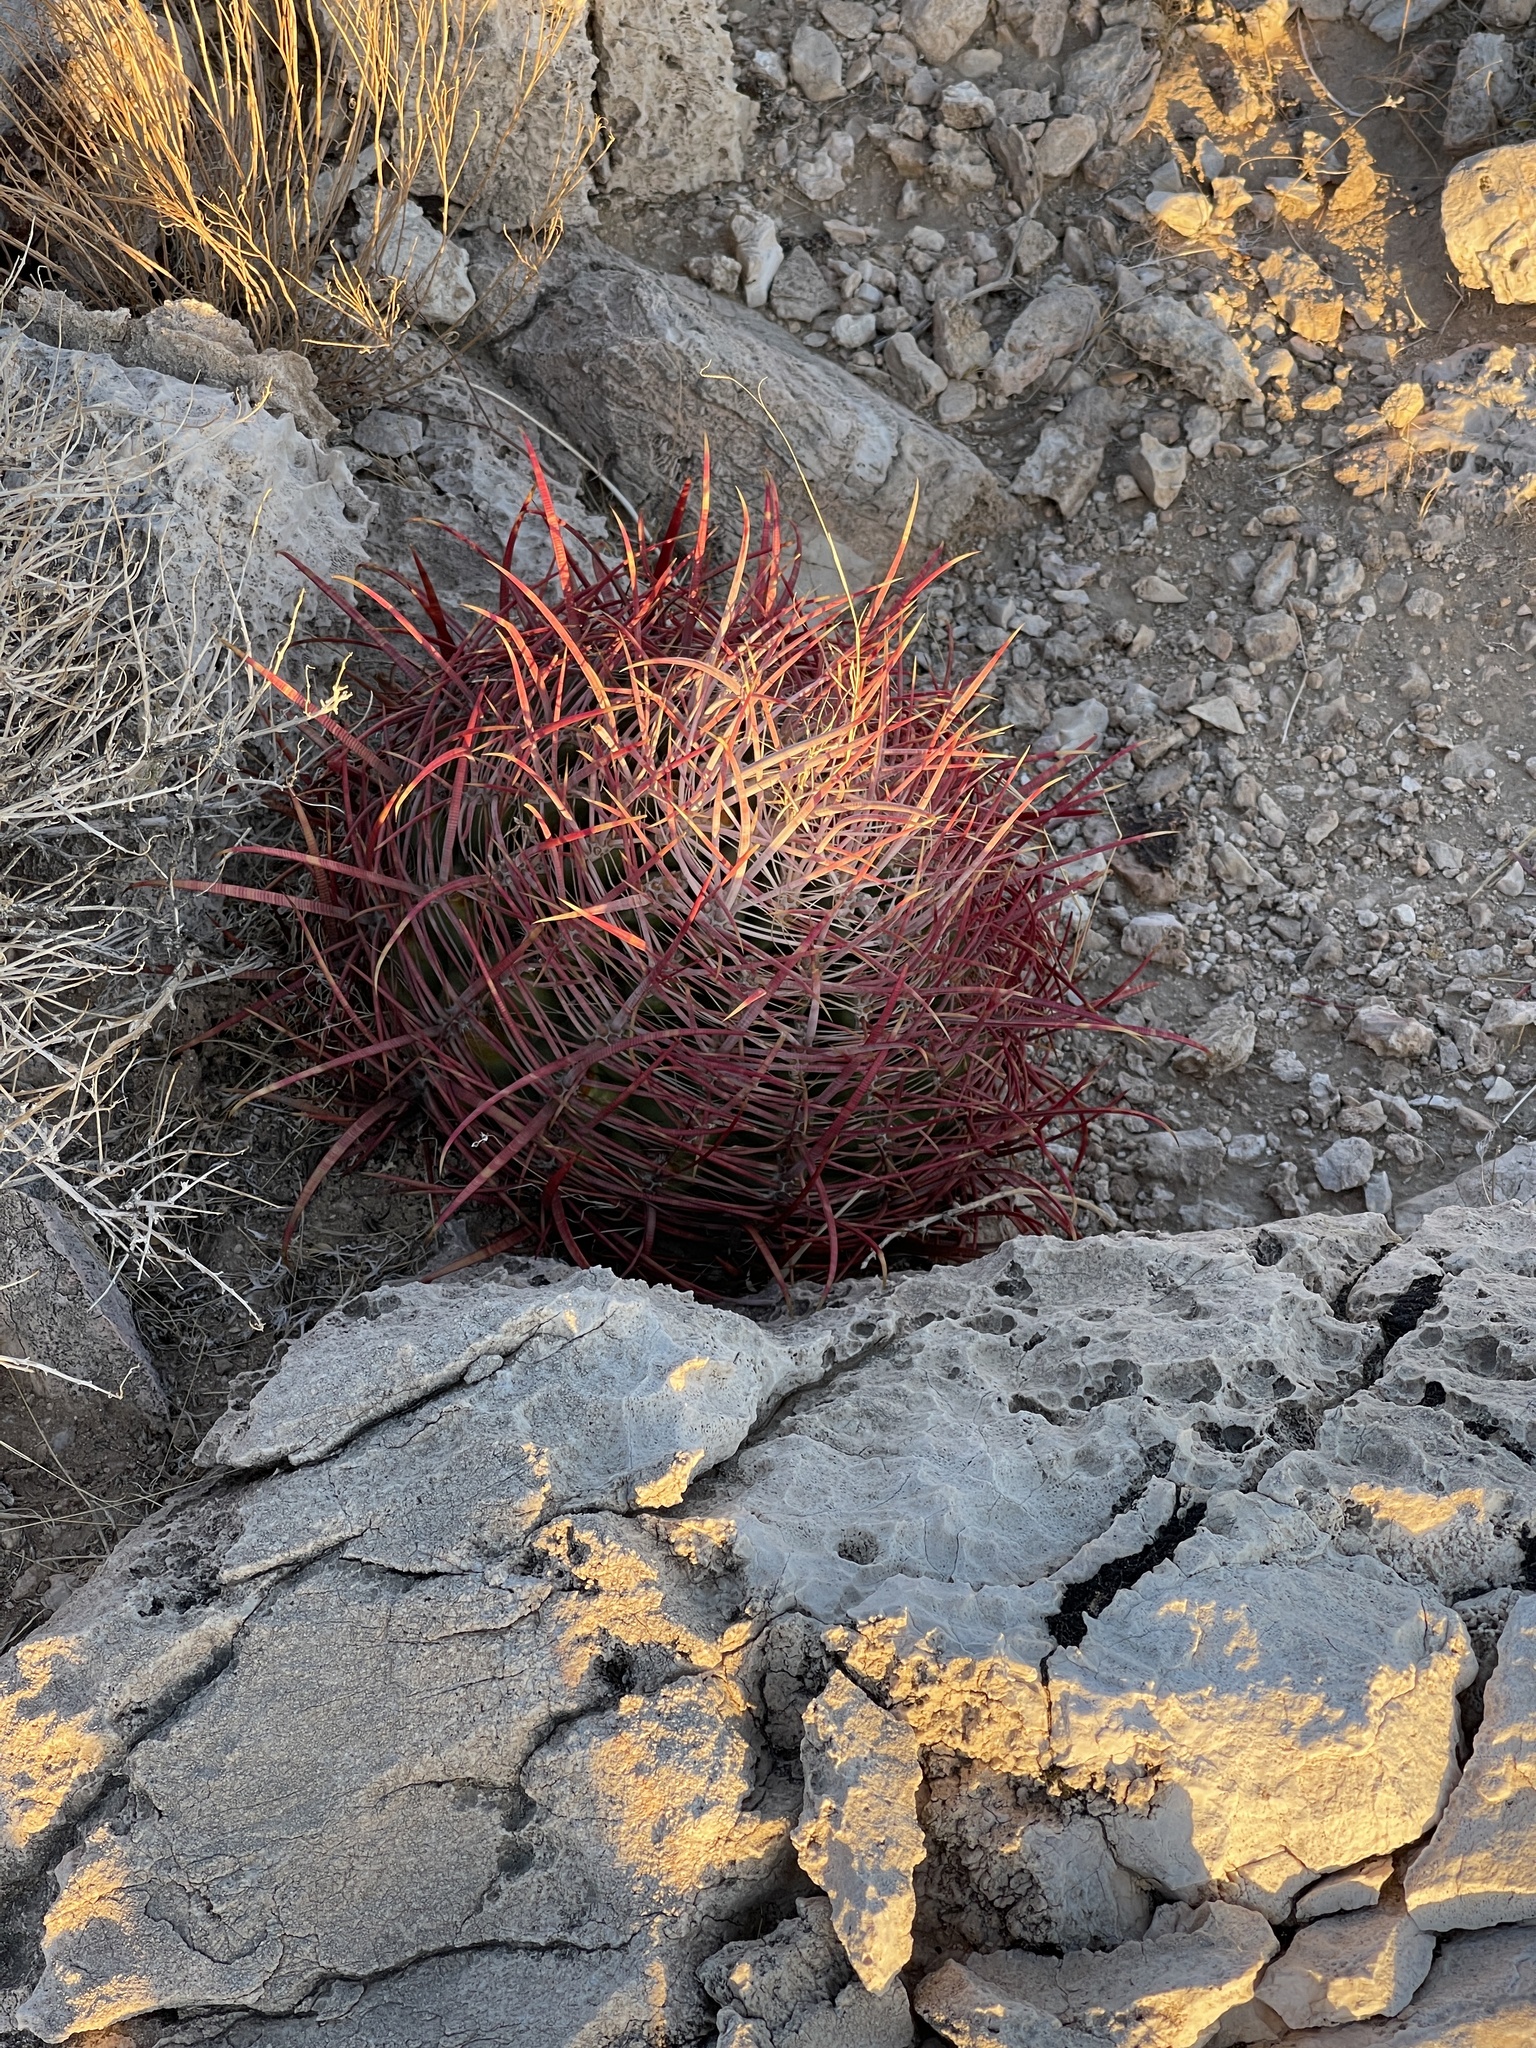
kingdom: Plantae
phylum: Tracheophyta
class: Magnoliopsida
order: Caryophyllales
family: Cactaceae
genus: Ferocactus
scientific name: Ferocactus cylindraceus
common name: California barrel cactus
